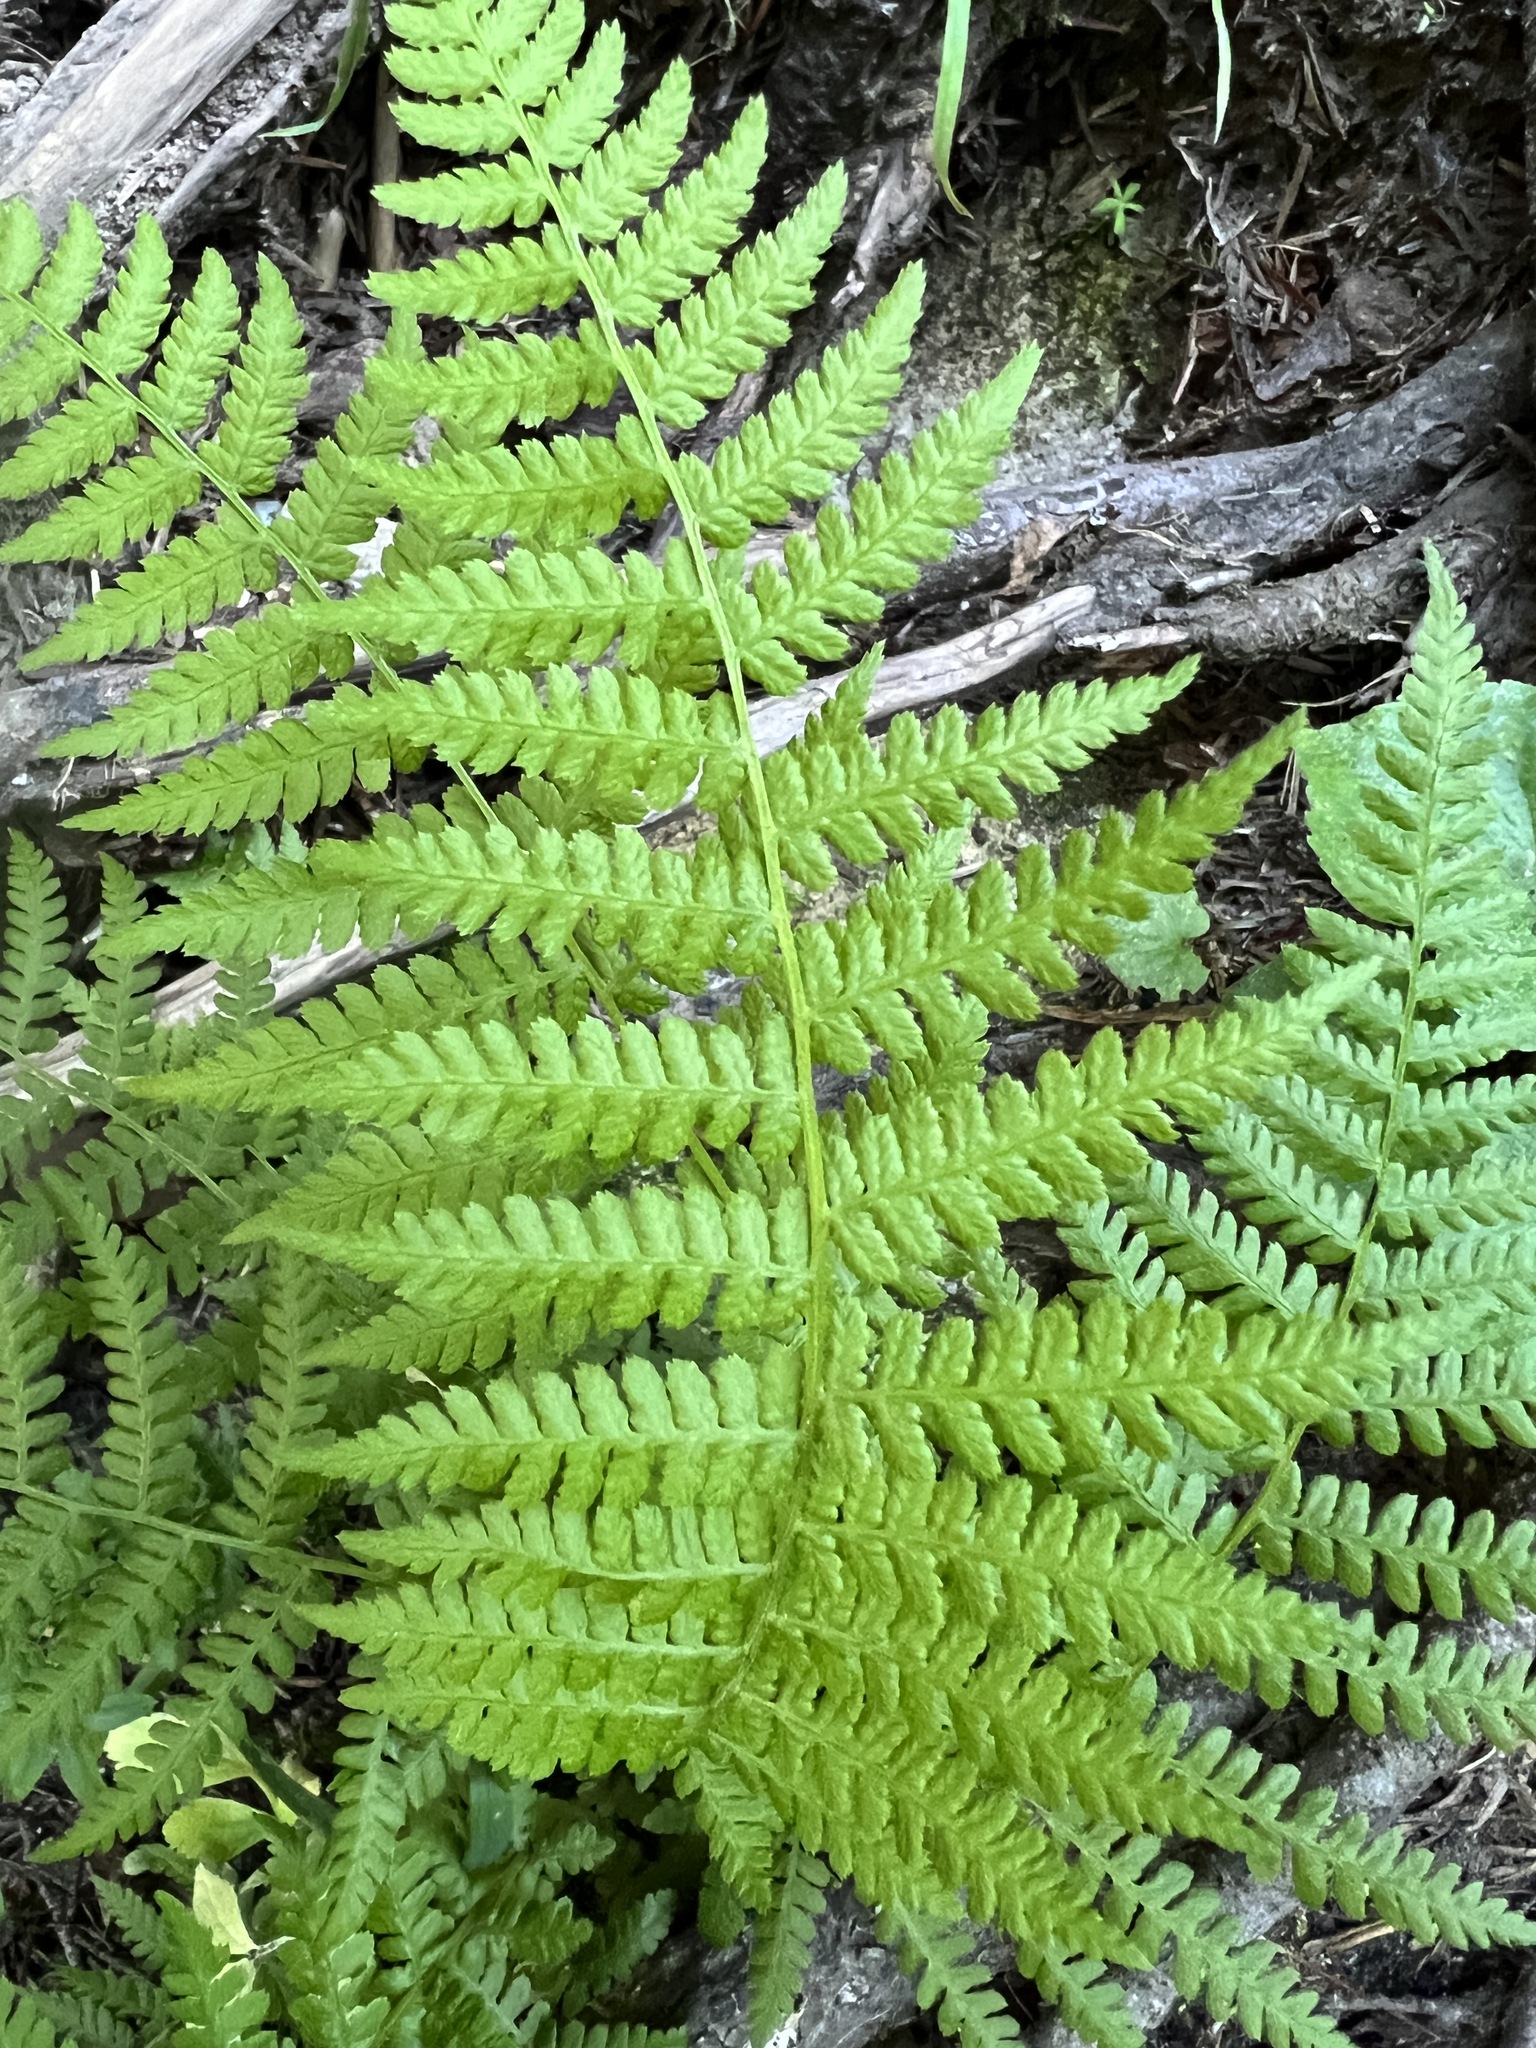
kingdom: Plantae
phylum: Tracheophyta
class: Polypodiopsida
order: Polypodiales
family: Athyriaceae
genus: Athyrium
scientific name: Athyrium cyclosorum
